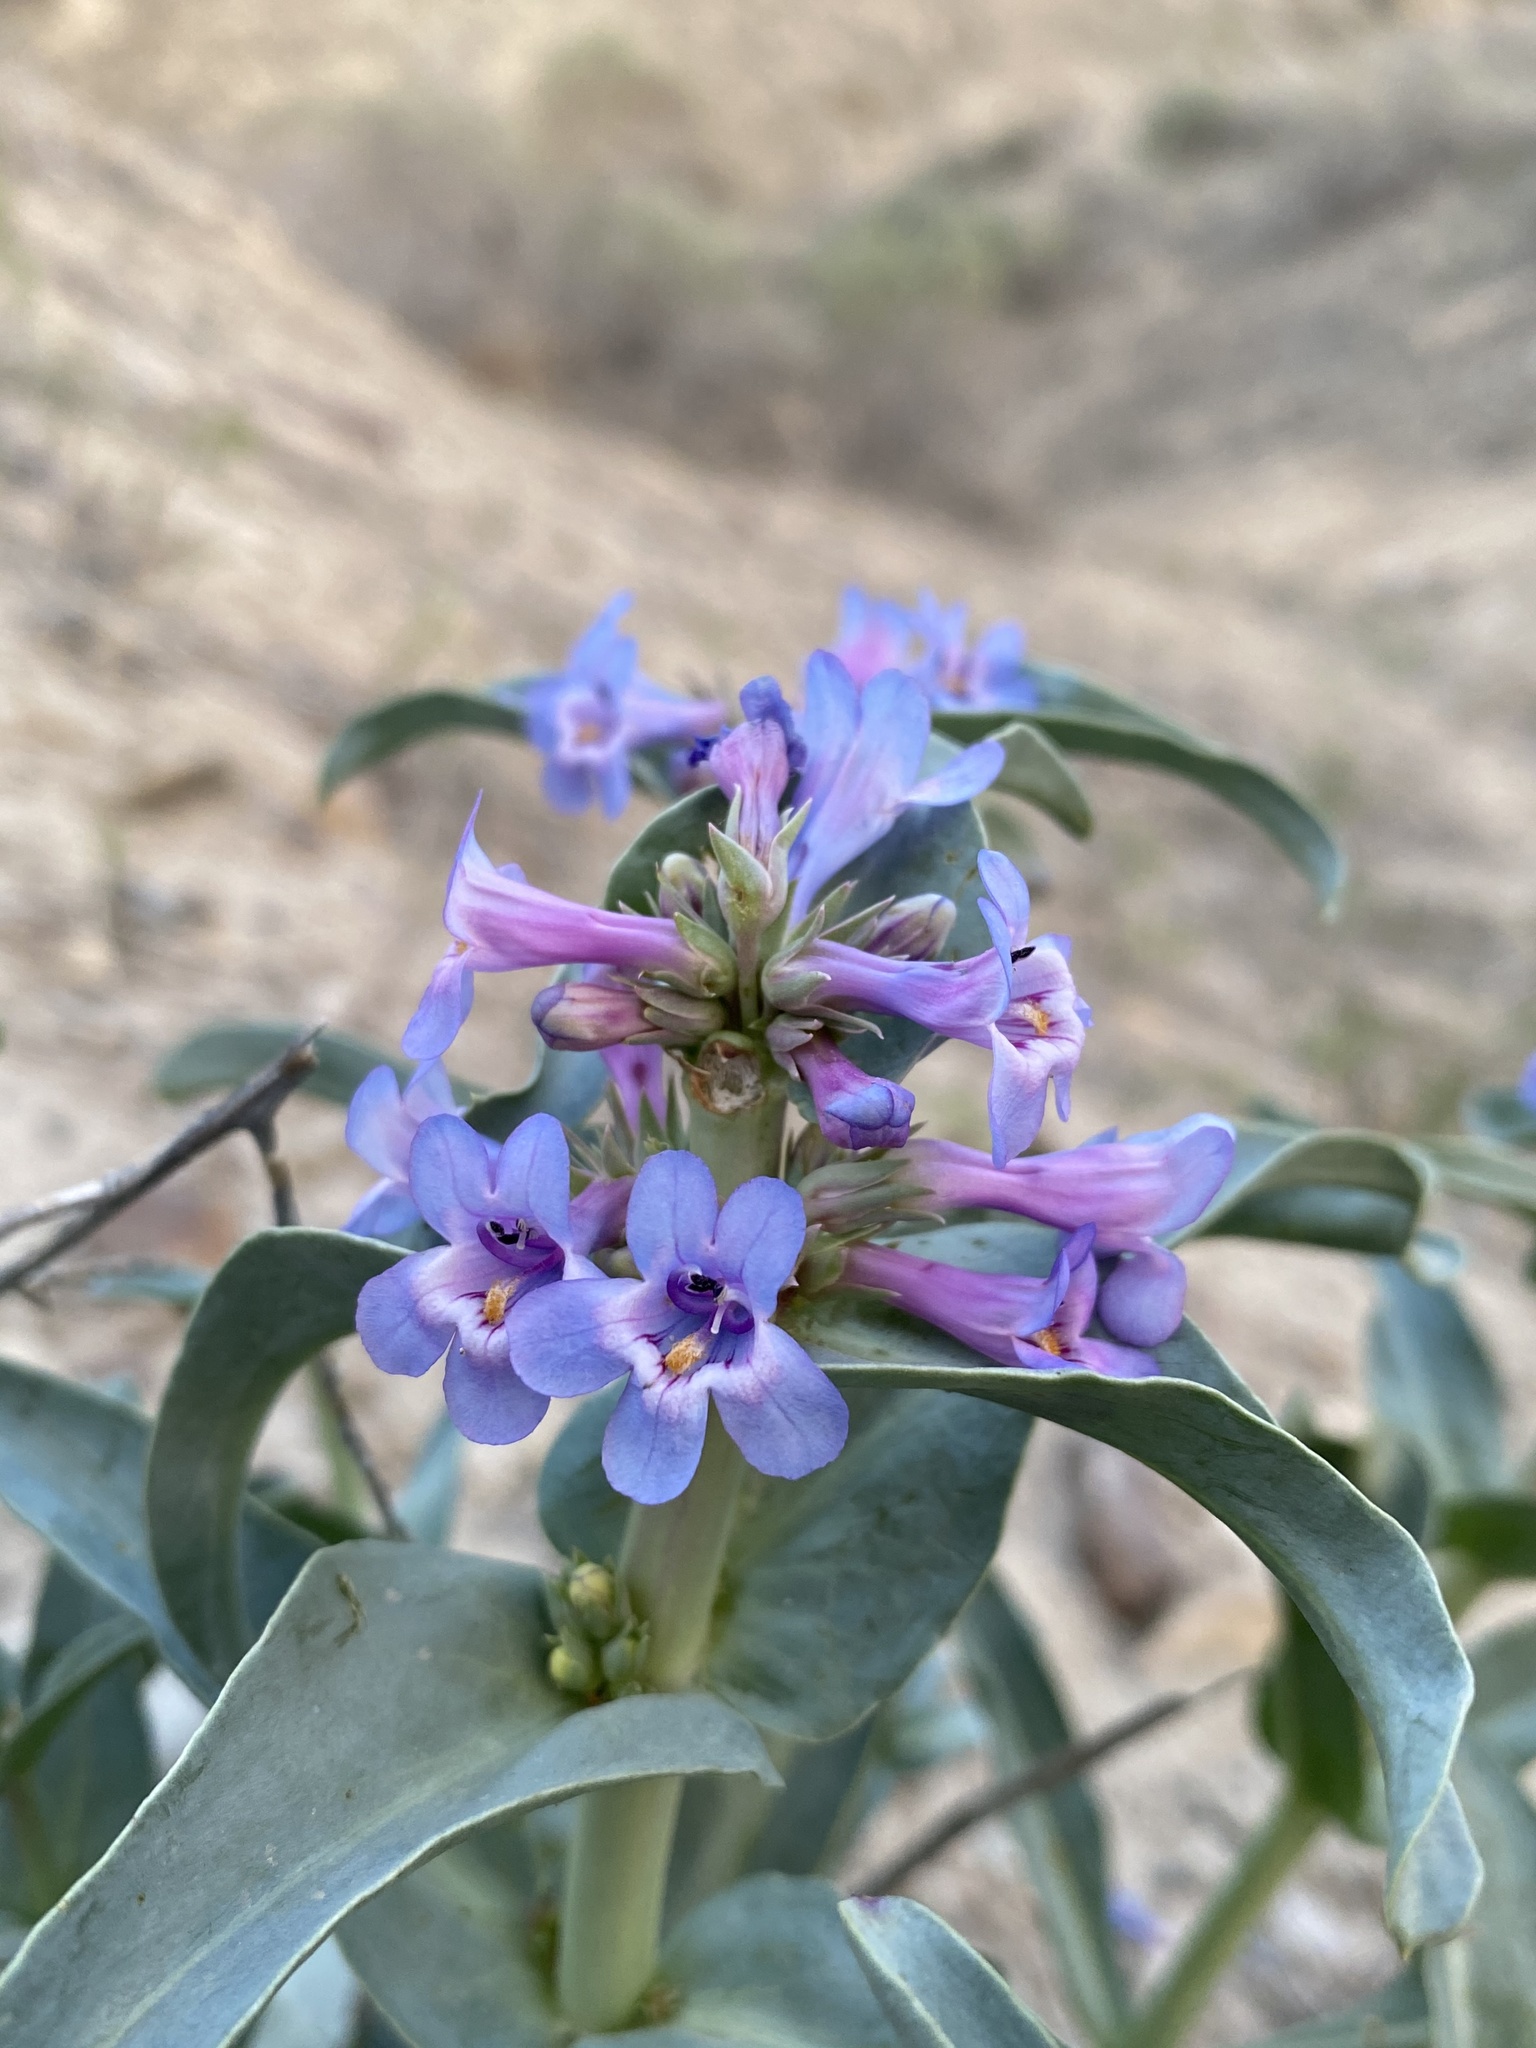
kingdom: Plantae
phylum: Tracheophyta
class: Magnoliopsida
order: Lamiales
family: Plantaginaceae
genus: Penstemon
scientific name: Penstemon acuminatus
